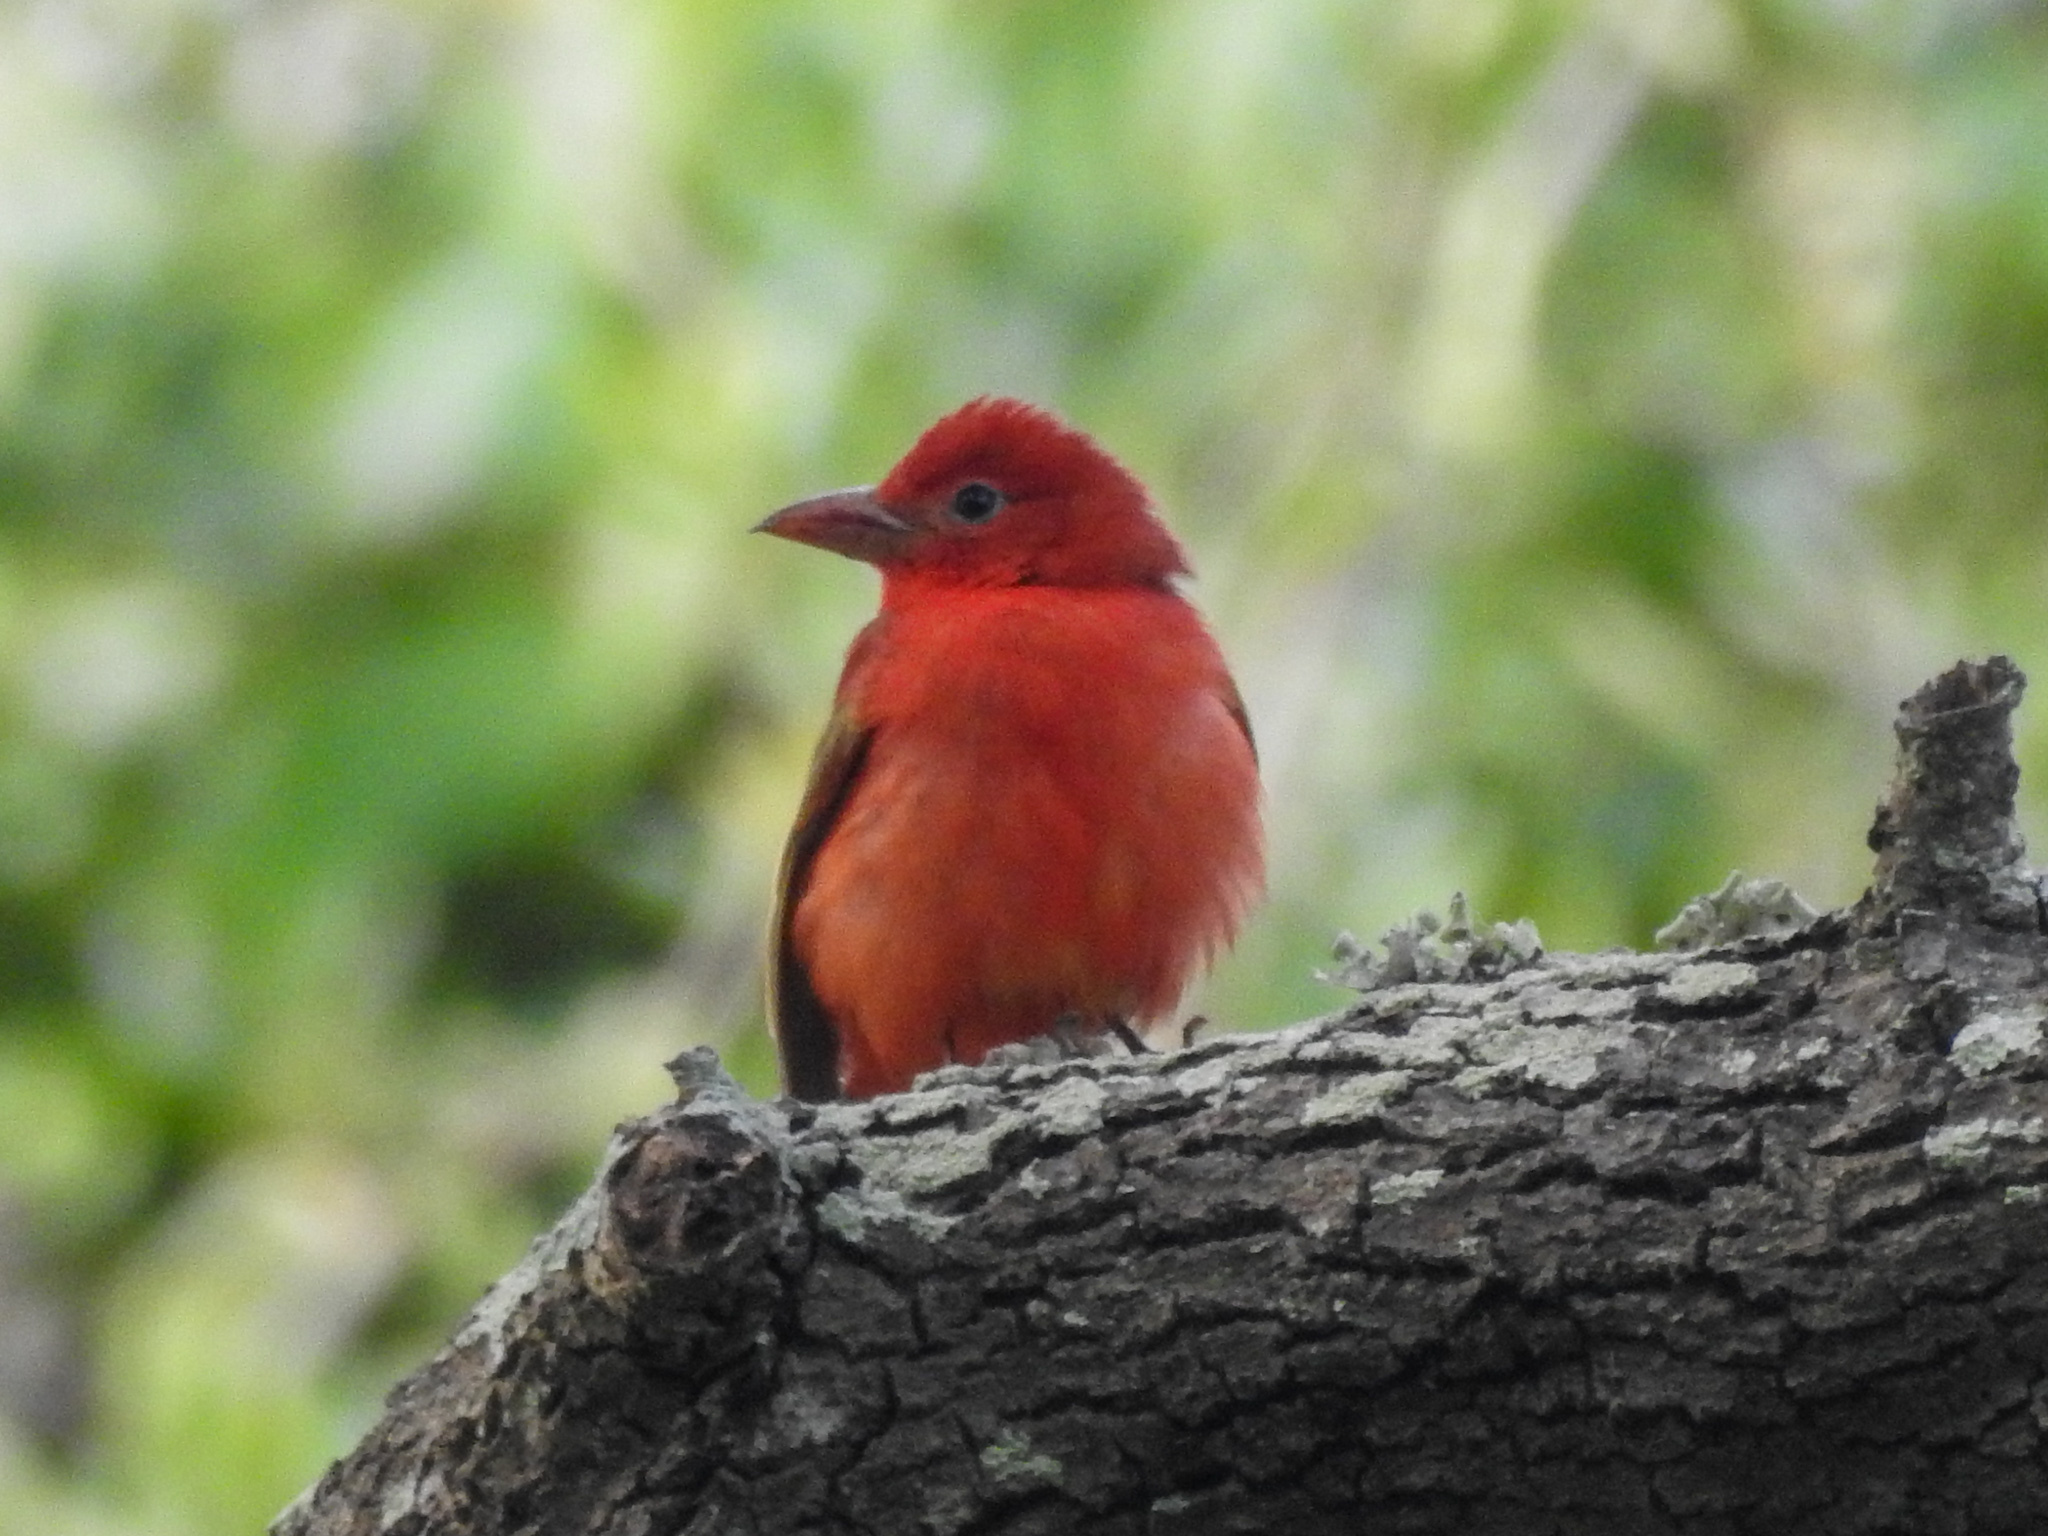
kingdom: Animalia
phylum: Chordata
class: Aves
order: Passeriformes
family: Cardinalidae
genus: Piranga
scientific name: Piranga rubra
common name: Summer tanager
